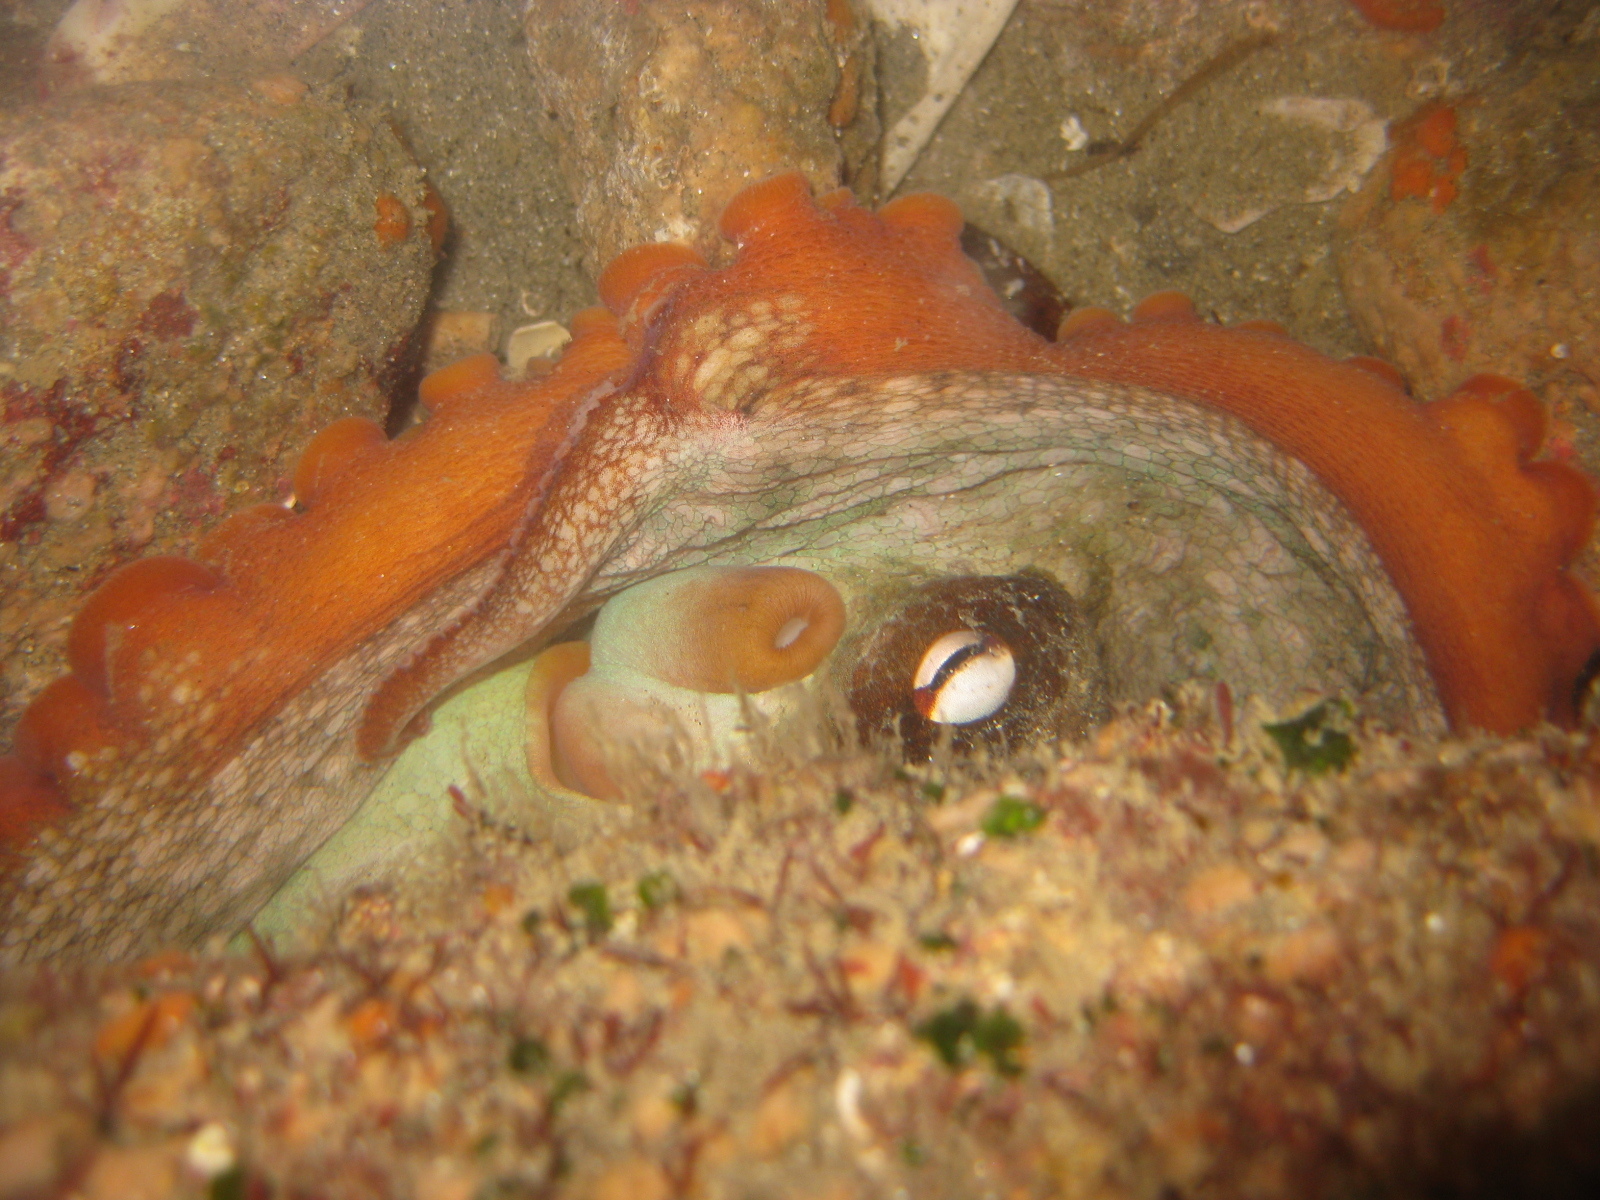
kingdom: Animalia
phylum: Mollusca
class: Cephalopoda
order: Octopoda
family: Octopodidae
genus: Octopus
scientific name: Octopus tetricus
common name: Sydney octopus
